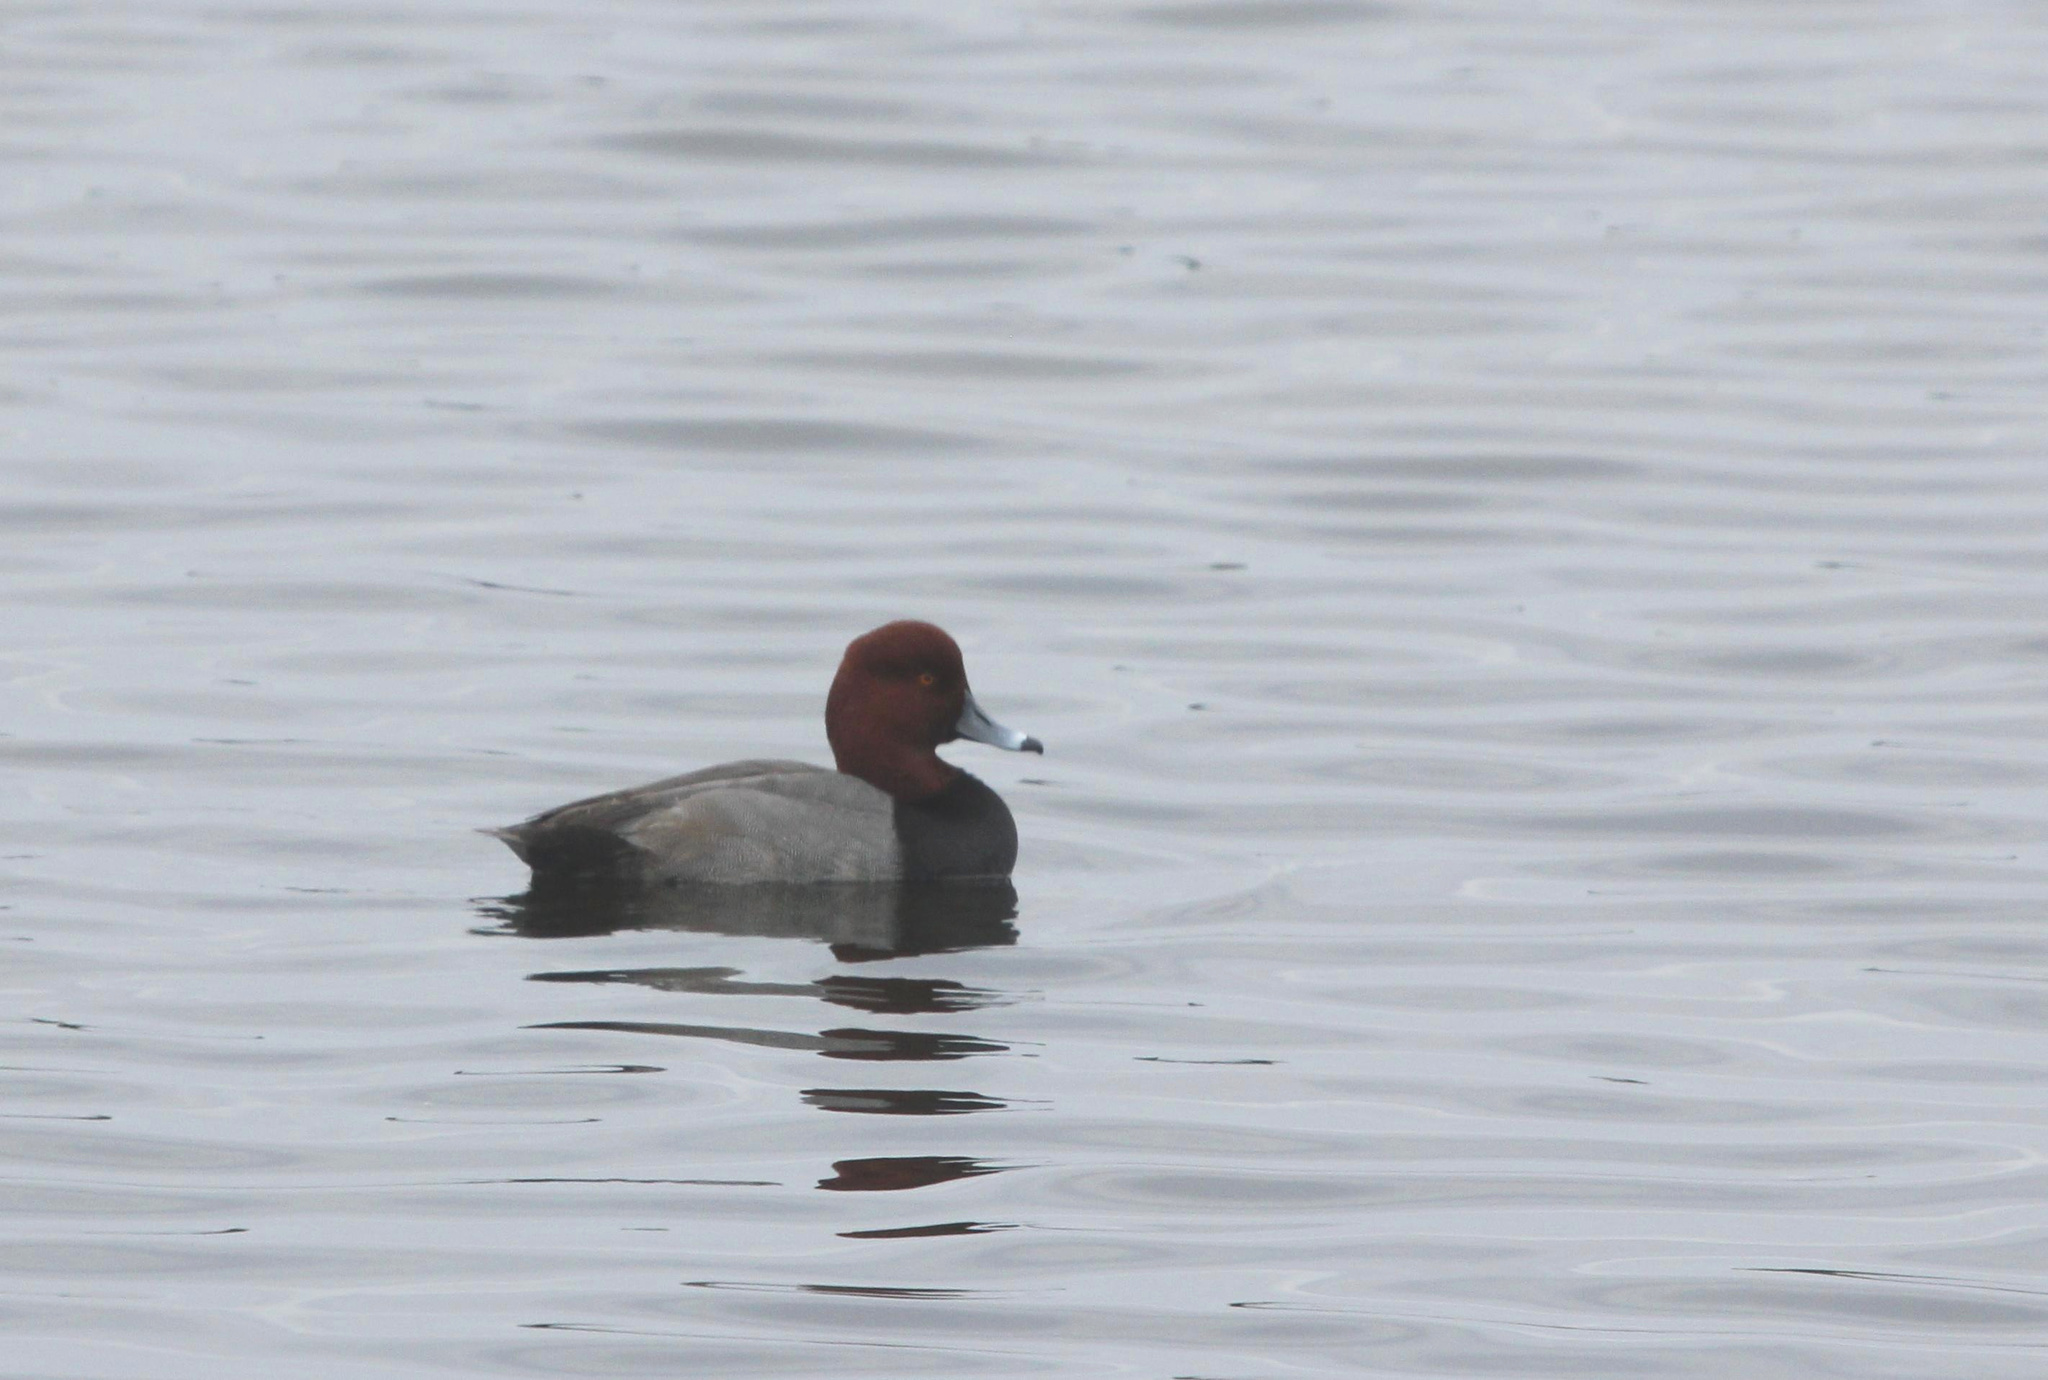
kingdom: Animalia
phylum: Chordata
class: Aves
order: Anseriformes
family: Anatidae
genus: Aythya
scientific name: Aythya americana
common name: Redhead
